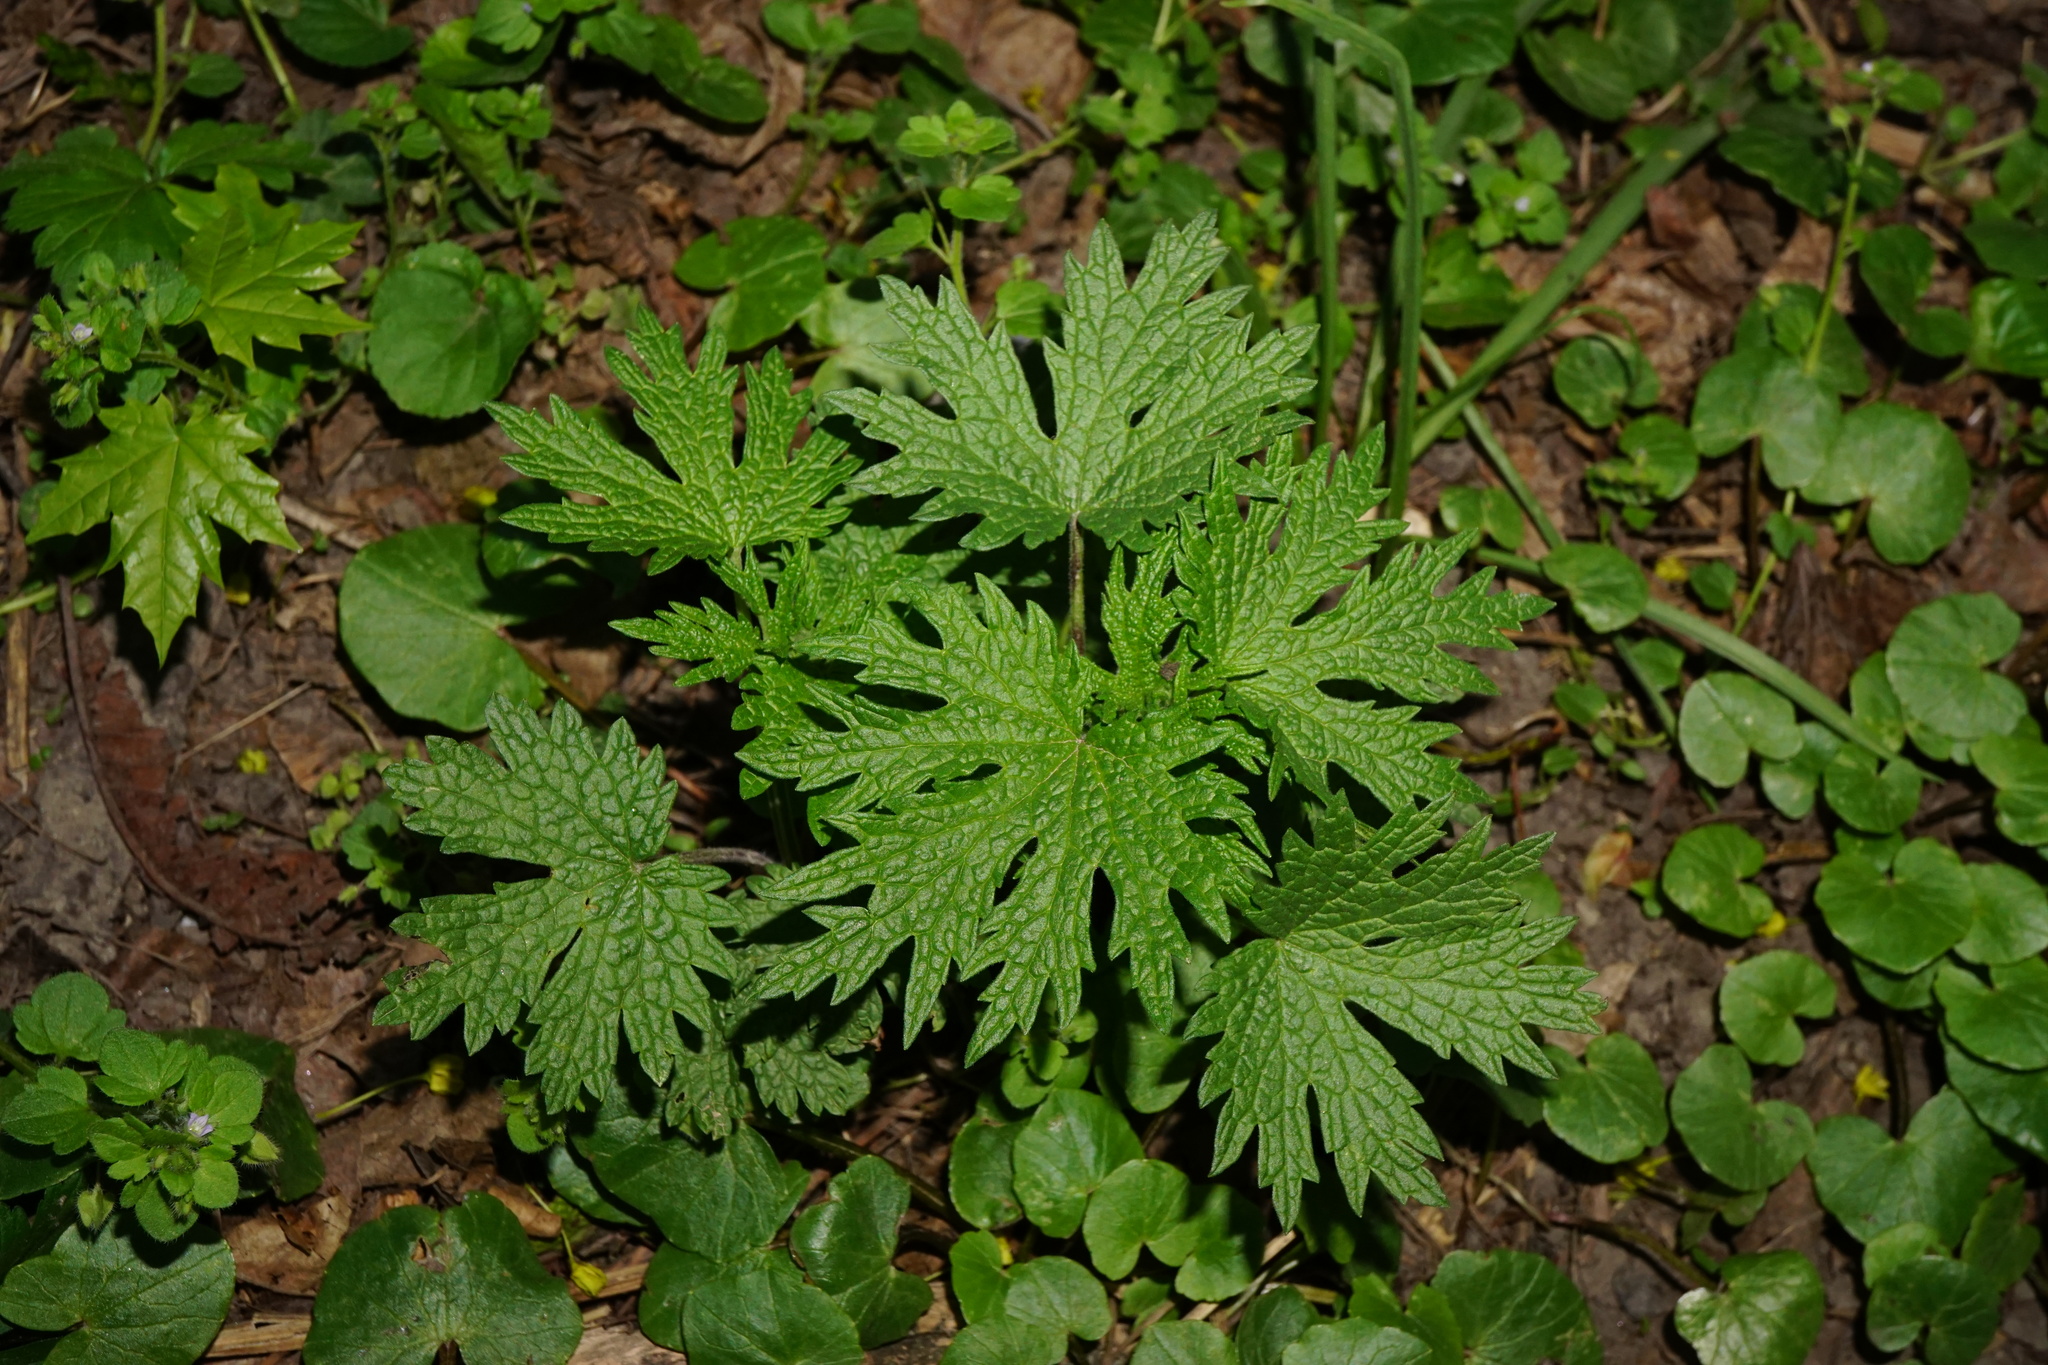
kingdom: Plantae
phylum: Tracheophyta
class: Magnoliopsida
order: Lamiales
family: Lamiaceae
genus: Leonurus
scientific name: Leonurus cardiaca
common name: Motherwort
